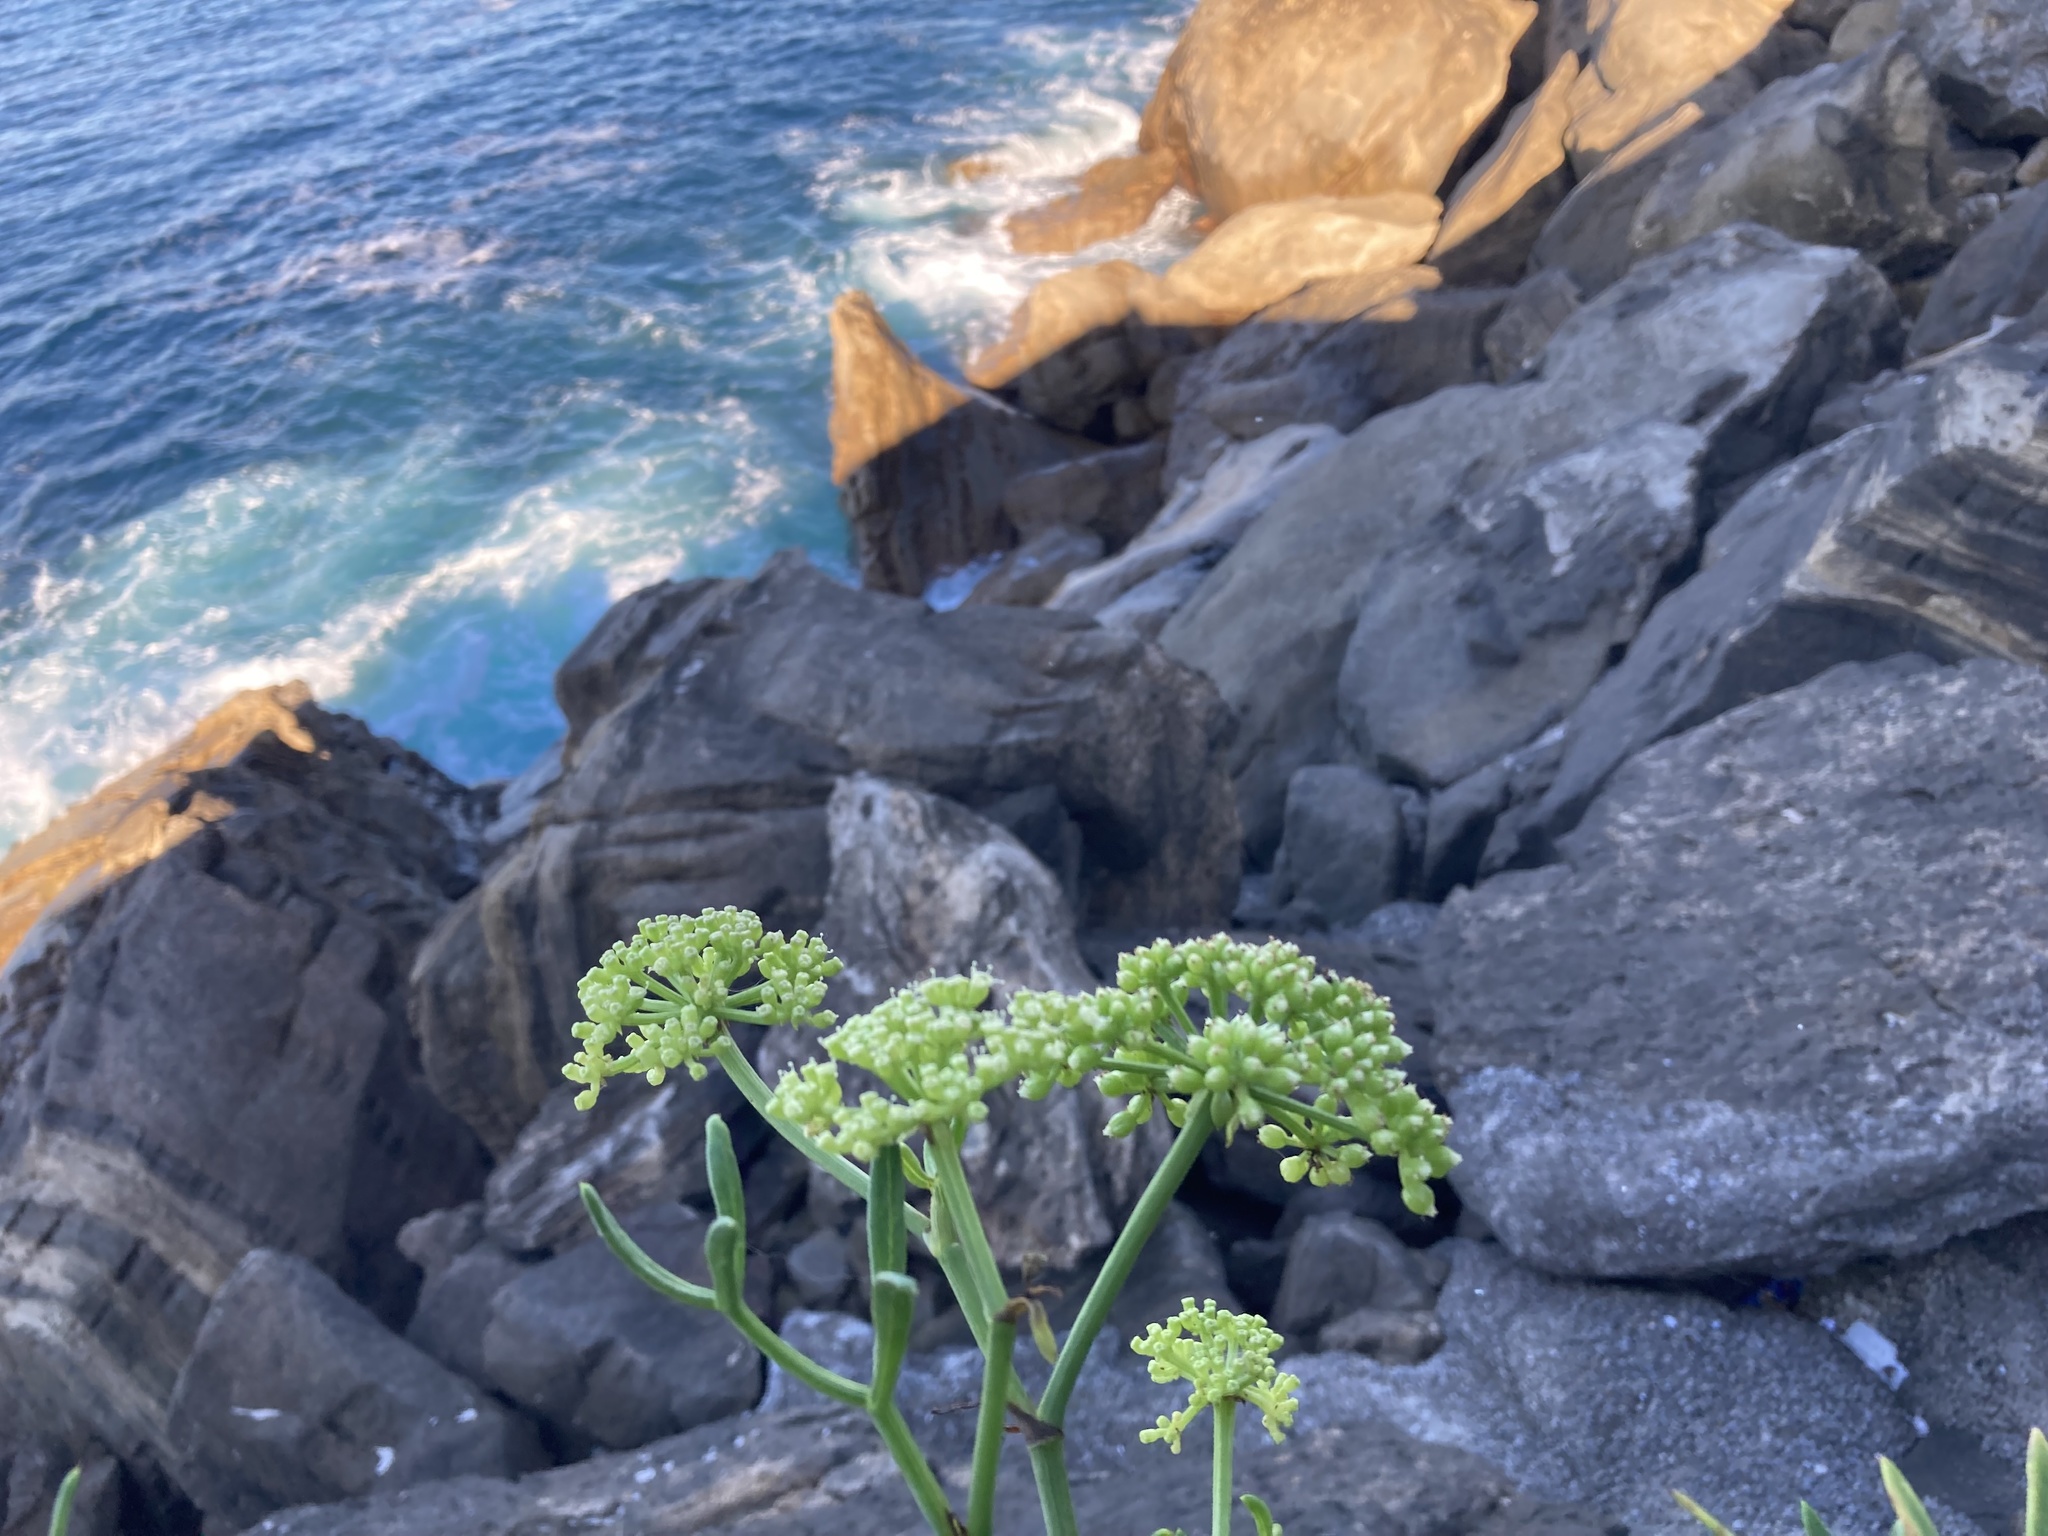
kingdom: Plantae
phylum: Tracheophyta
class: Magnoliopsida
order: Apiales
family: Apiaceae
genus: Crithmum
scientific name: Crithmum maritimum
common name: Rock samphire
